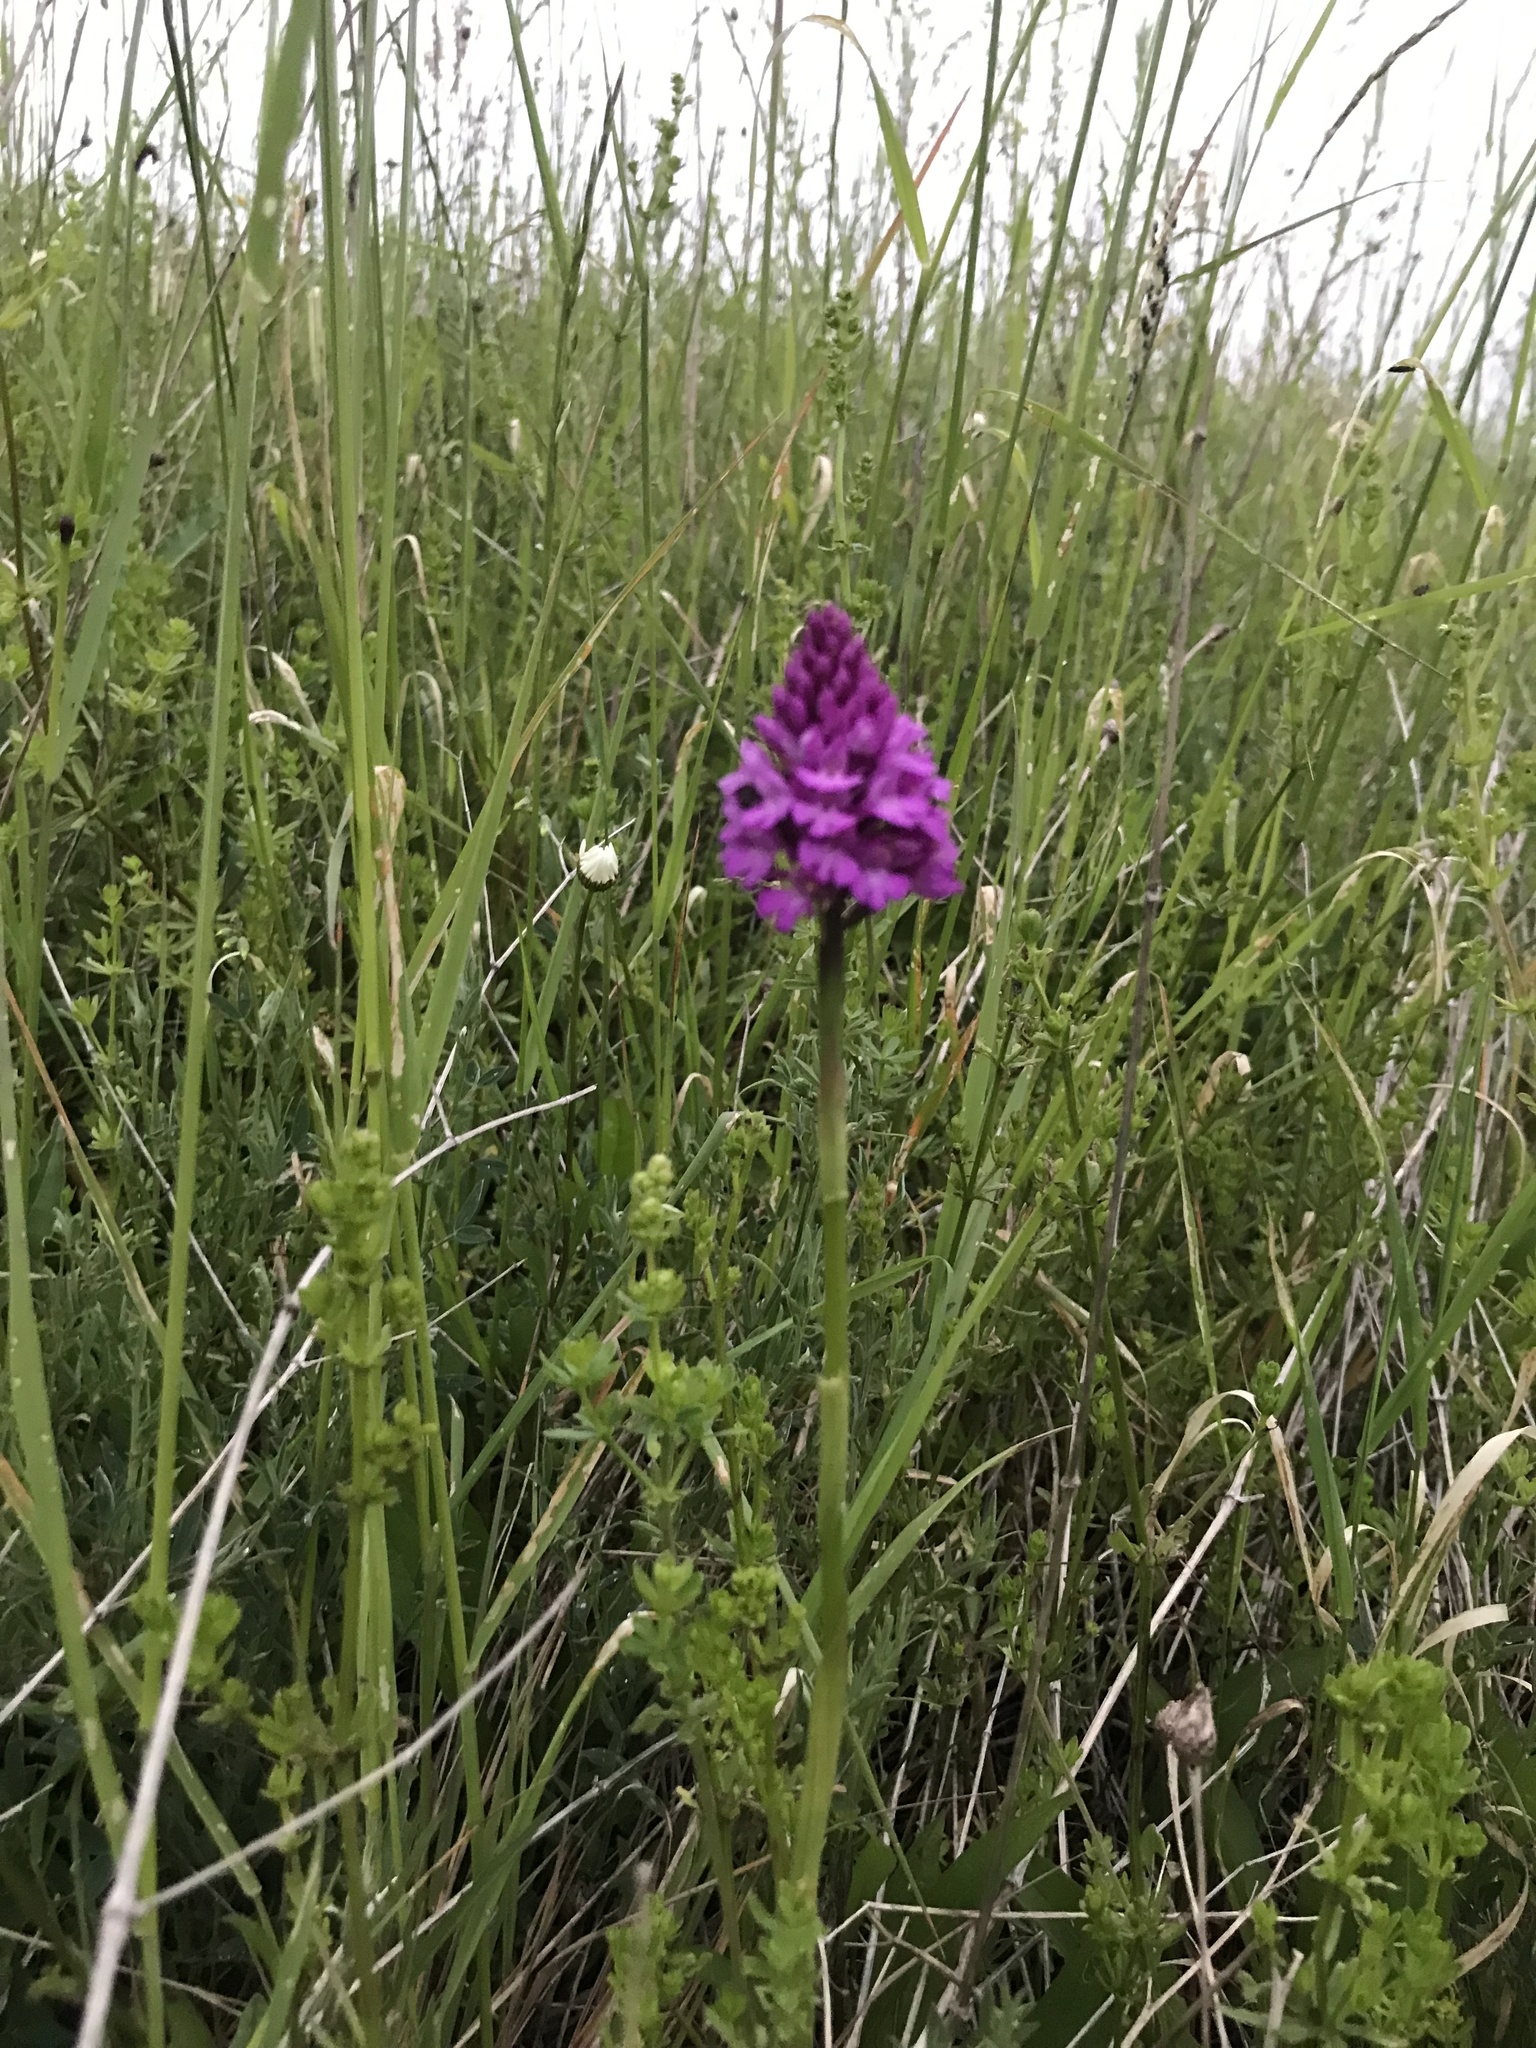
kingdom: Plantae
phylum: Tracheophyta
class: Liliopsida
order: Asparagales
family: Orchidaceae
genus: Anacamptis
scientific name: Anacamptis pyramidalis
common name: Pyramidal orchid
